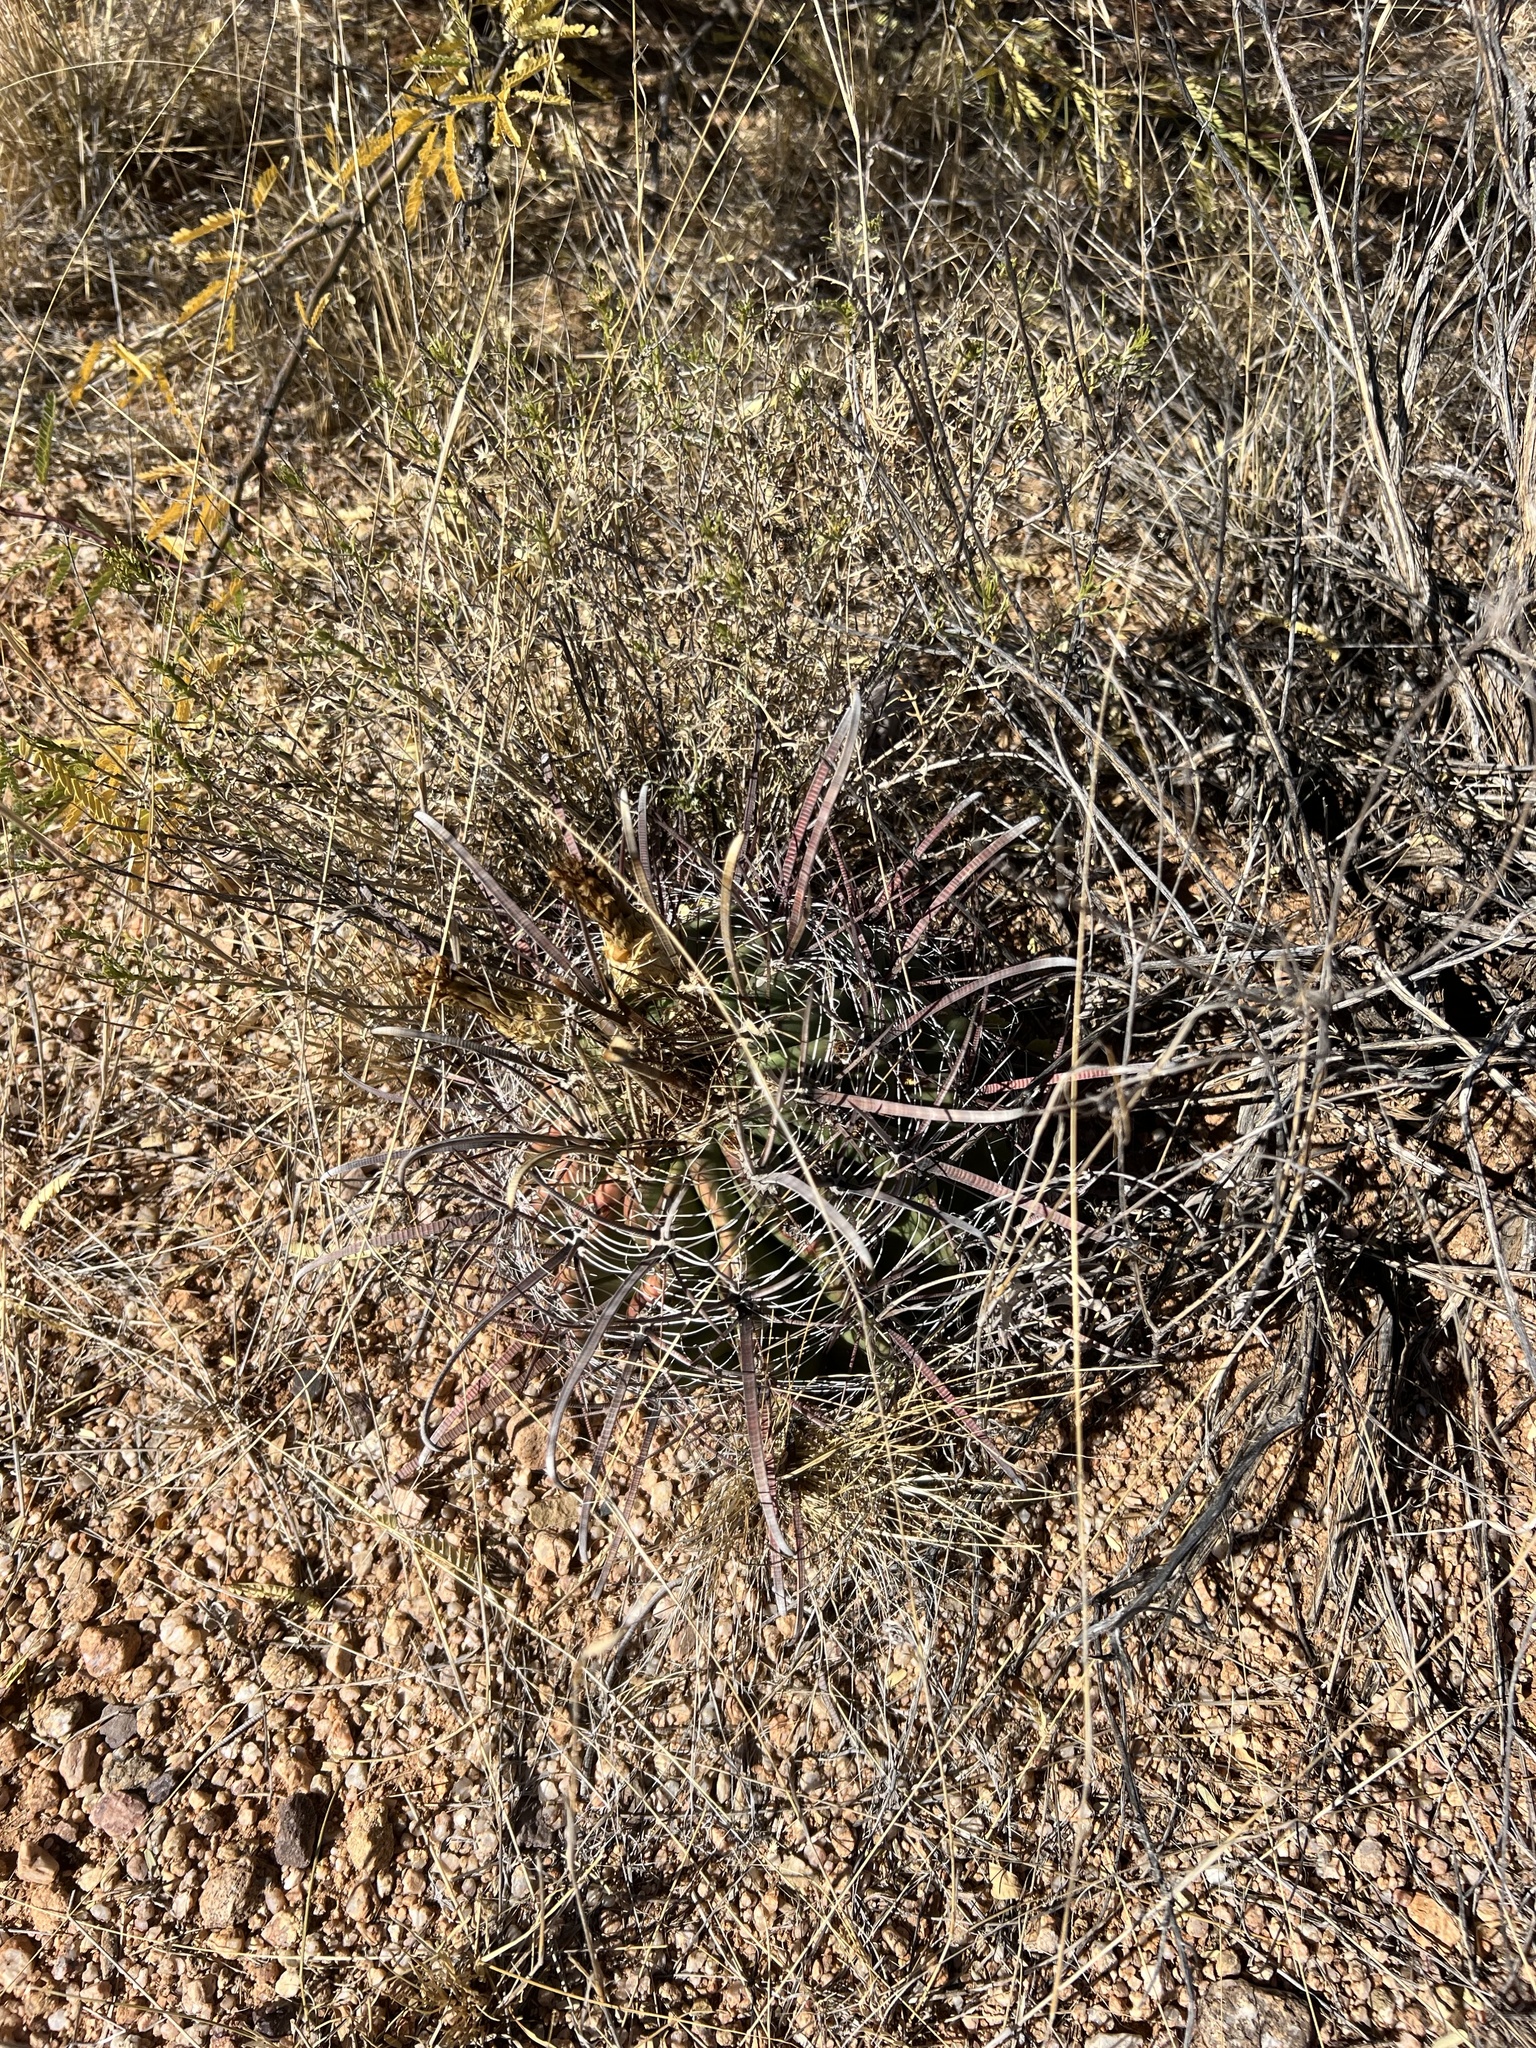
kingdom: Plantae
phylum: Tracheophyta
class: Magnoliopsida
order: Caryophyllales
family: Cactaceae
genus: Ferocactus
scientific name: Ferocactus wislizeni
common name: Candy barrel cactus
